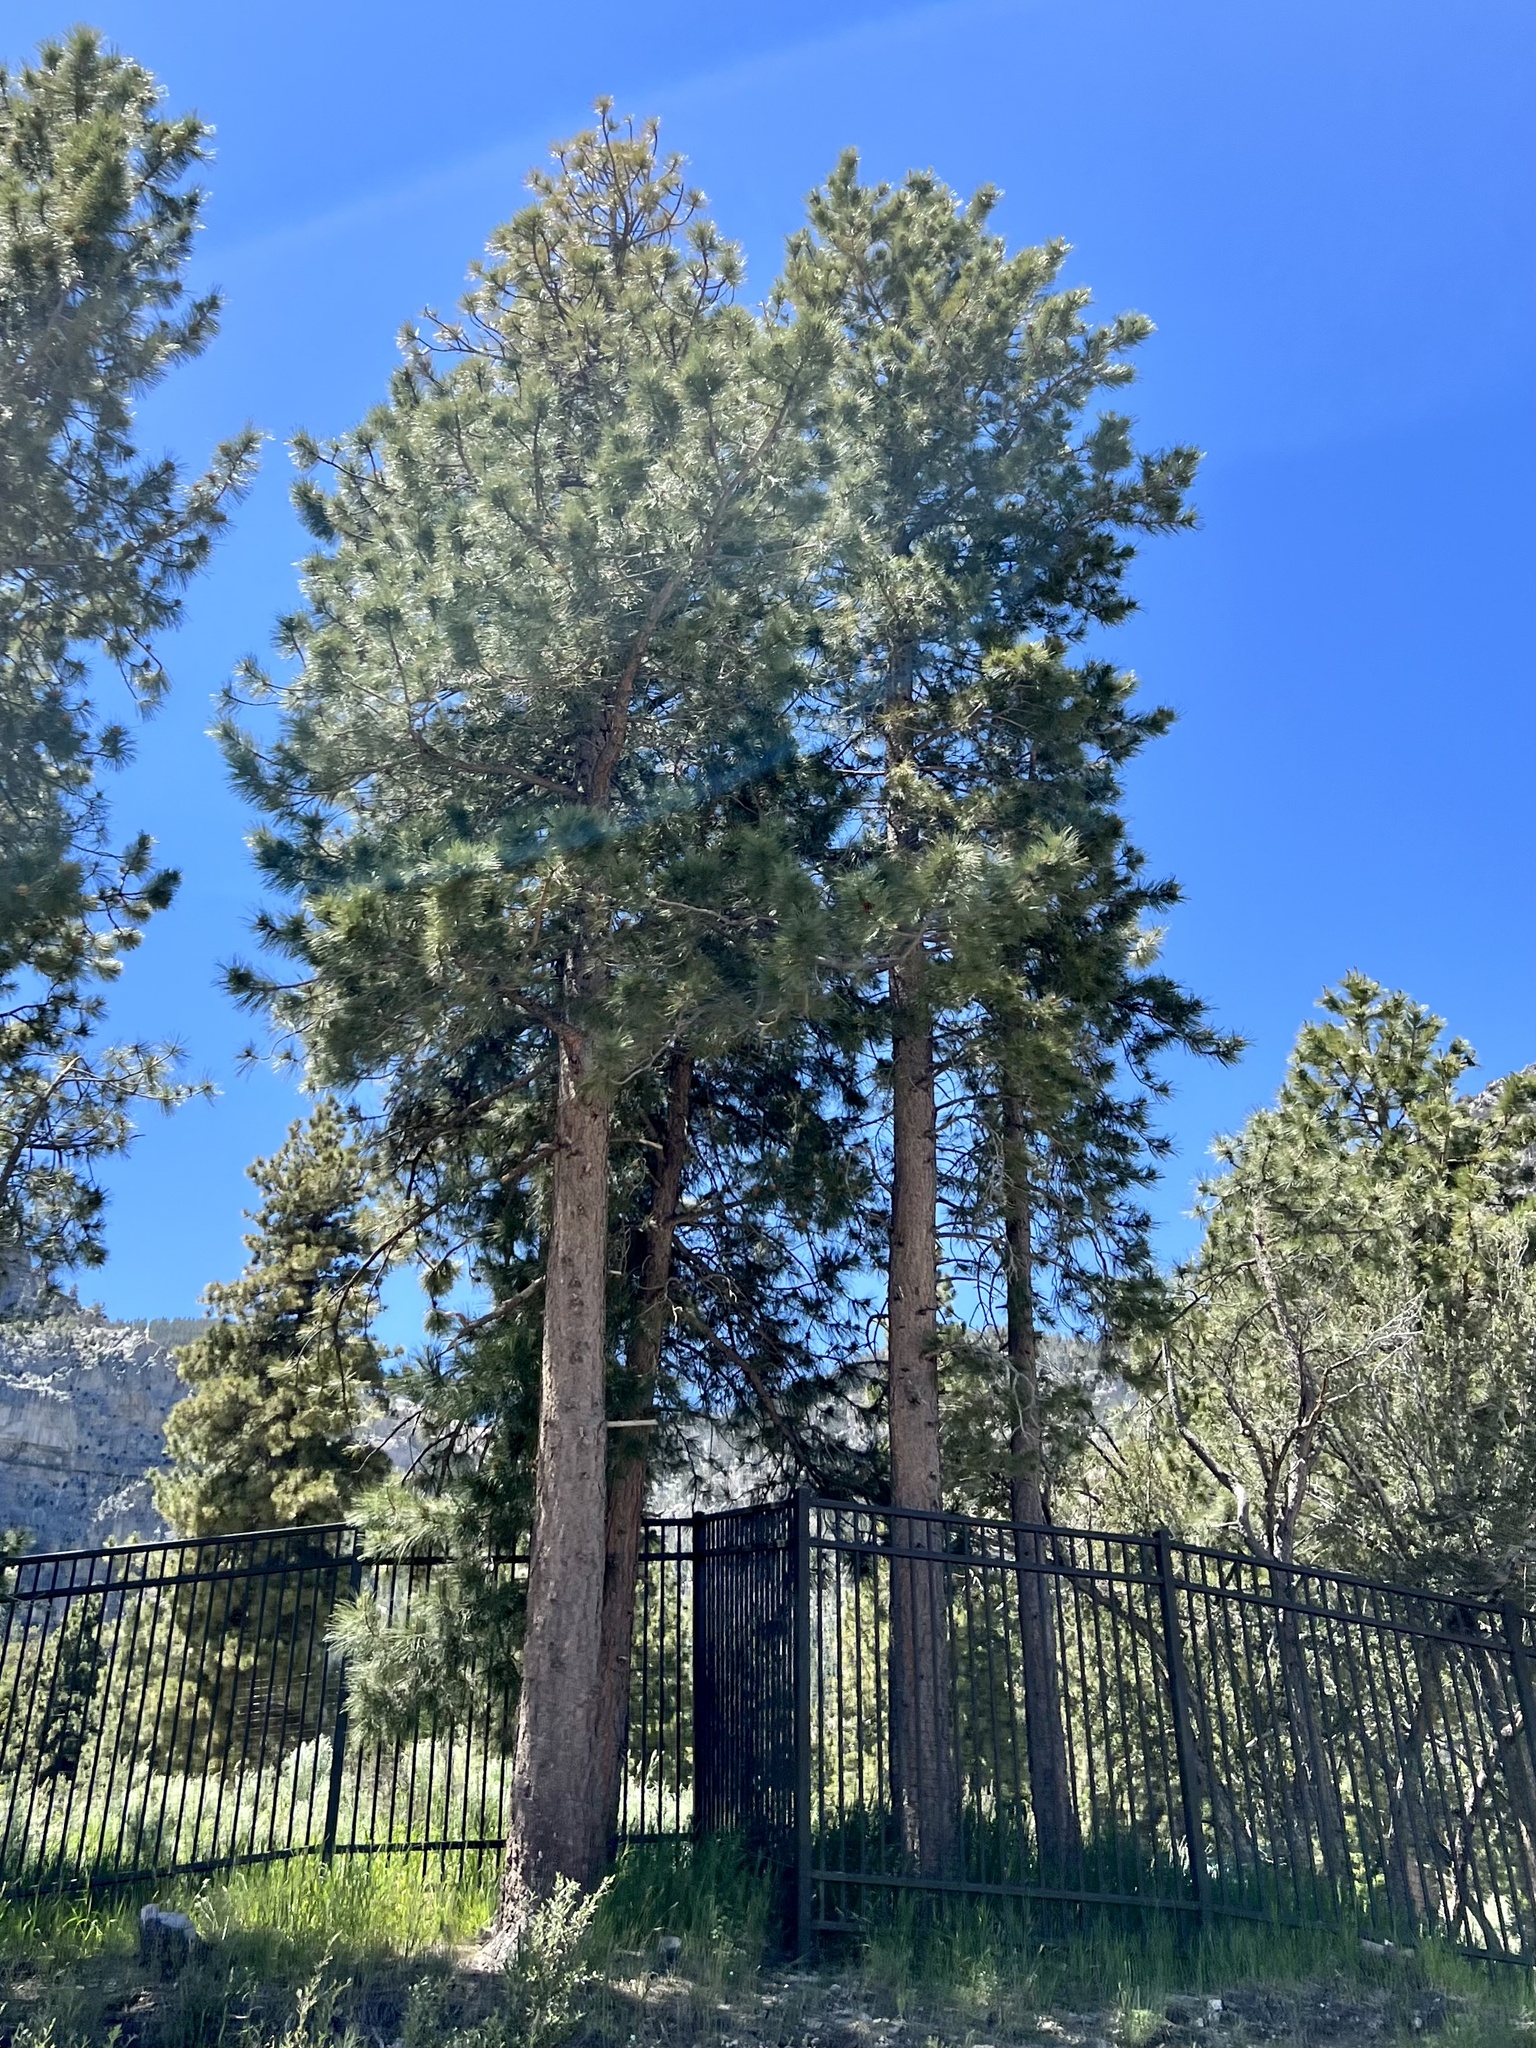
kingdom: Plantae
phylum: Tracheophyta
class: Pinopsida
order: Pinales
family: Pinaceae
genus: Pinus
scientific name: Pinus ponderosa
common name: Western yellow-pine
